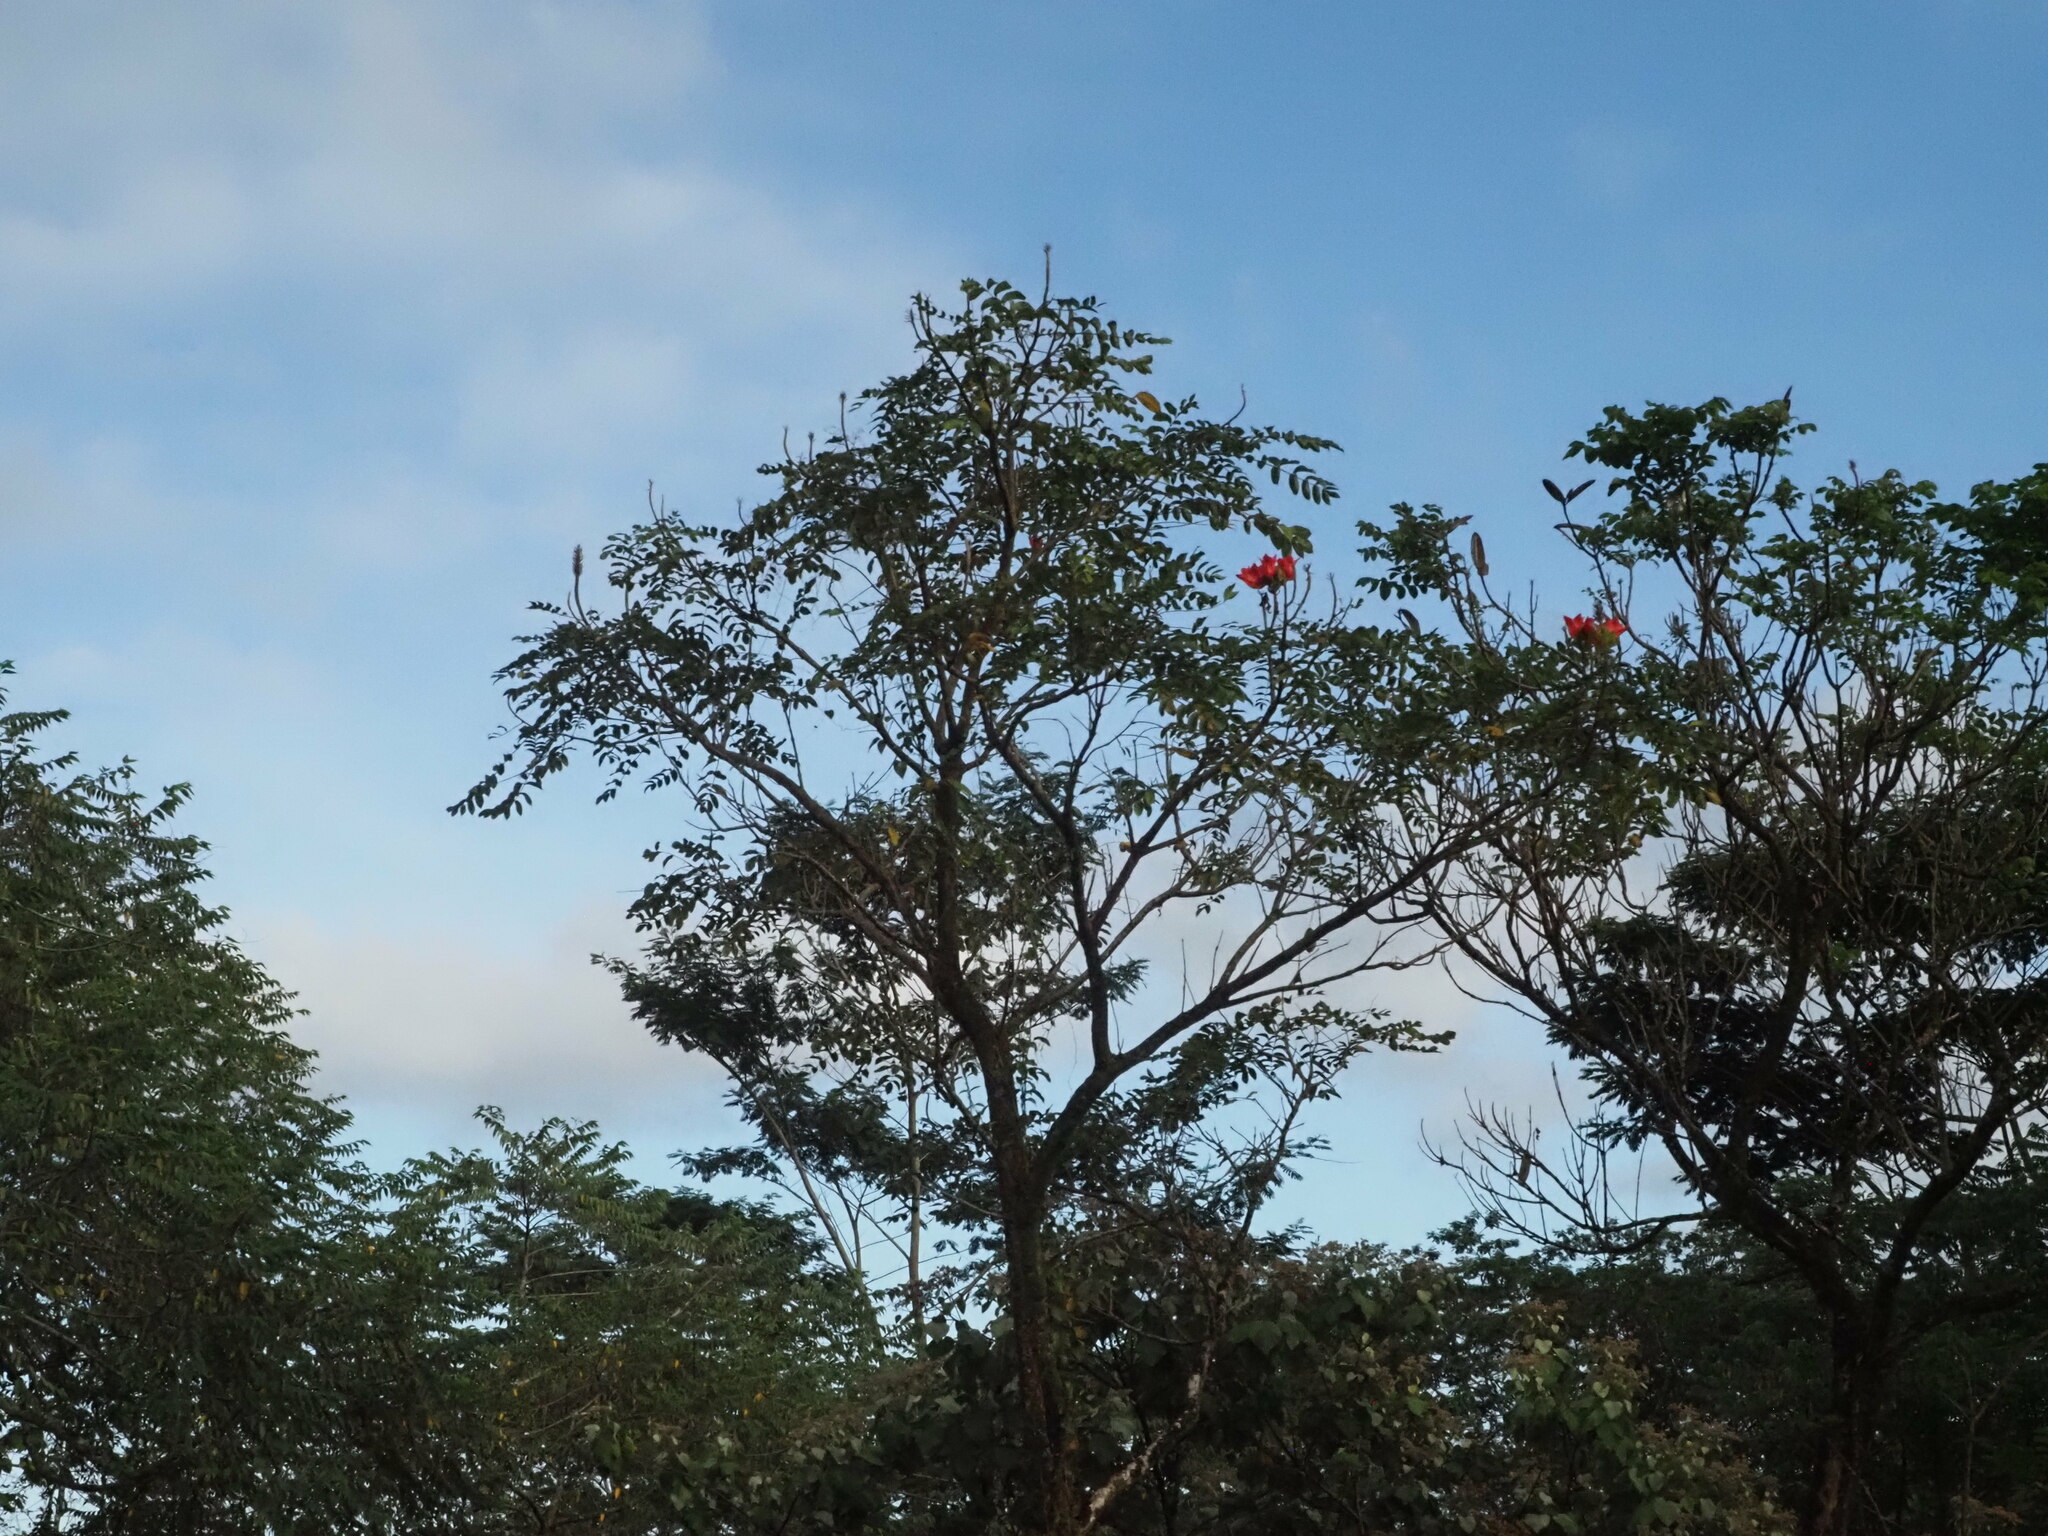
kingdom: Plantae
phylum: Tracheophyta
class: Magnoliopsida
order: Lamiales
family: Bignoniaceae
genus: Spathodea
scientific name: Spathodea campanulata
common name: African tuliptree
